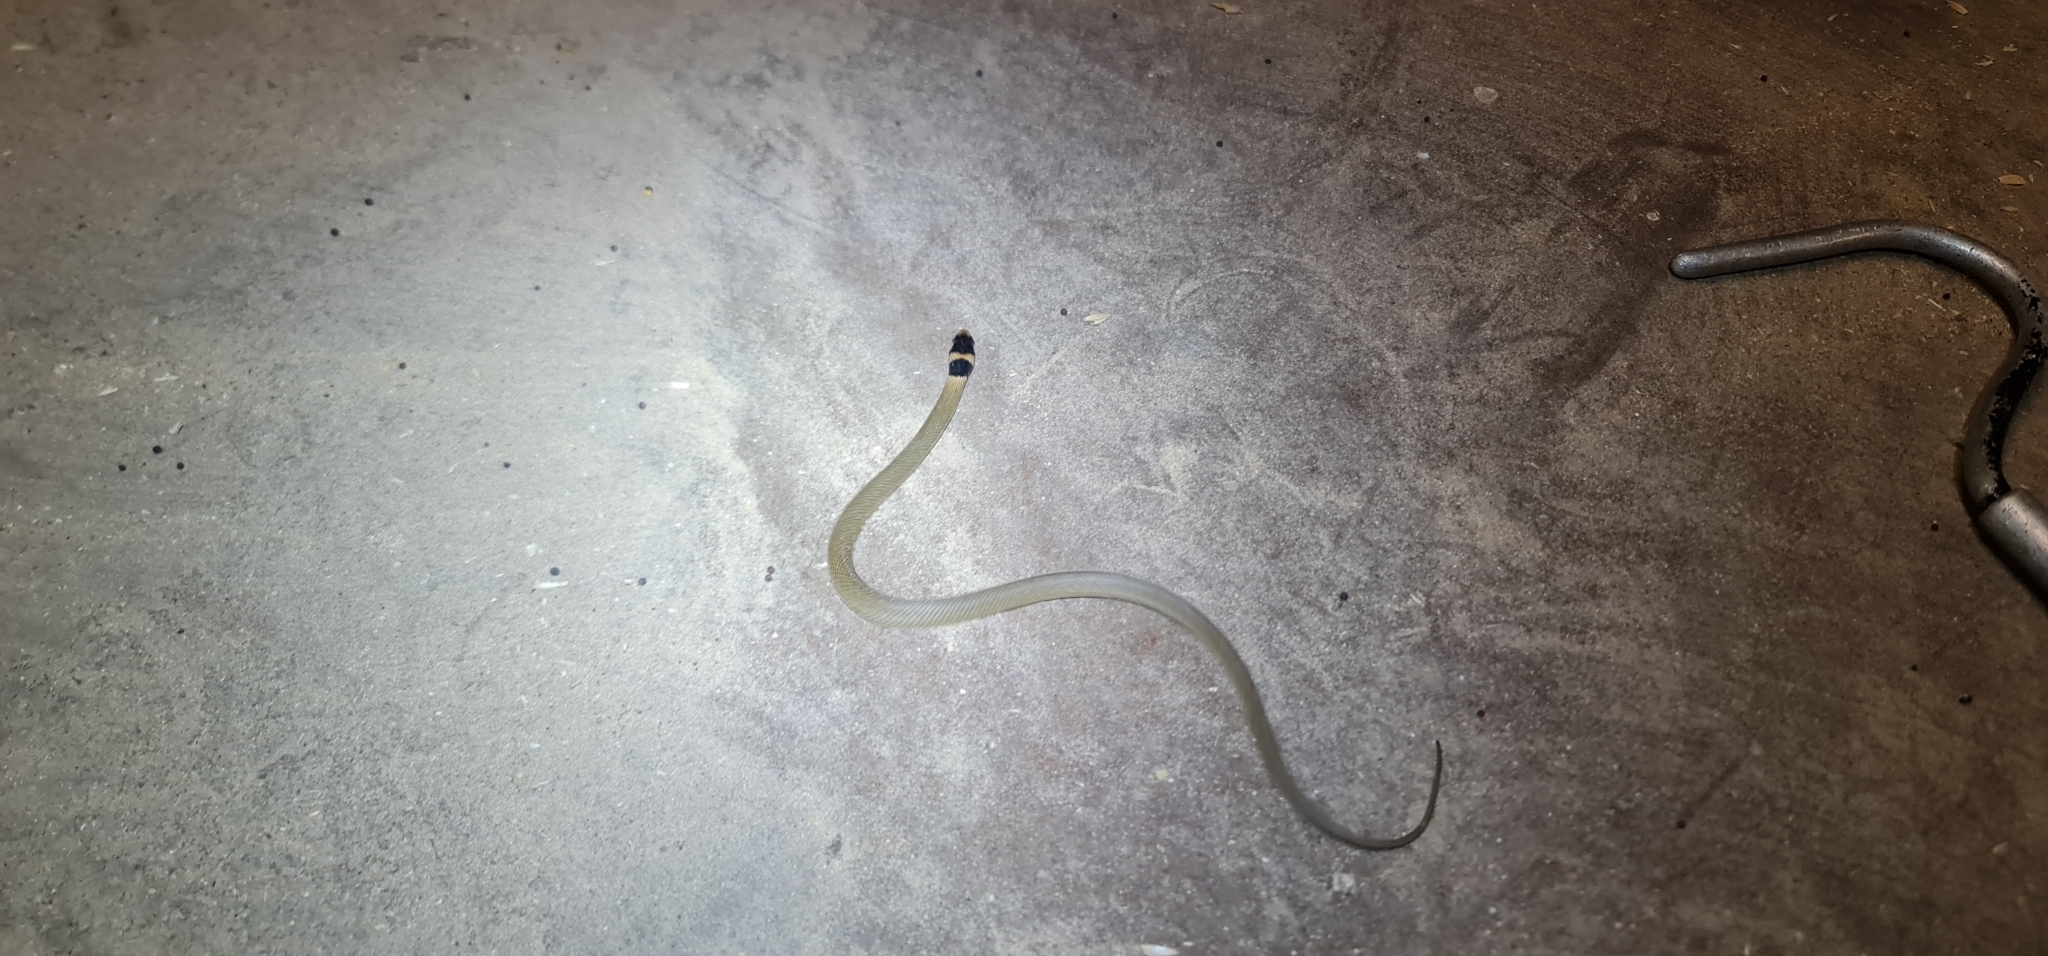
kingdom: Animalia
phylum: Chordata
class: Squamata
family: Elapidae
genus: Pseudonaja
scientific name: Pseudonaja textilis
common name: Eastern brown snake
